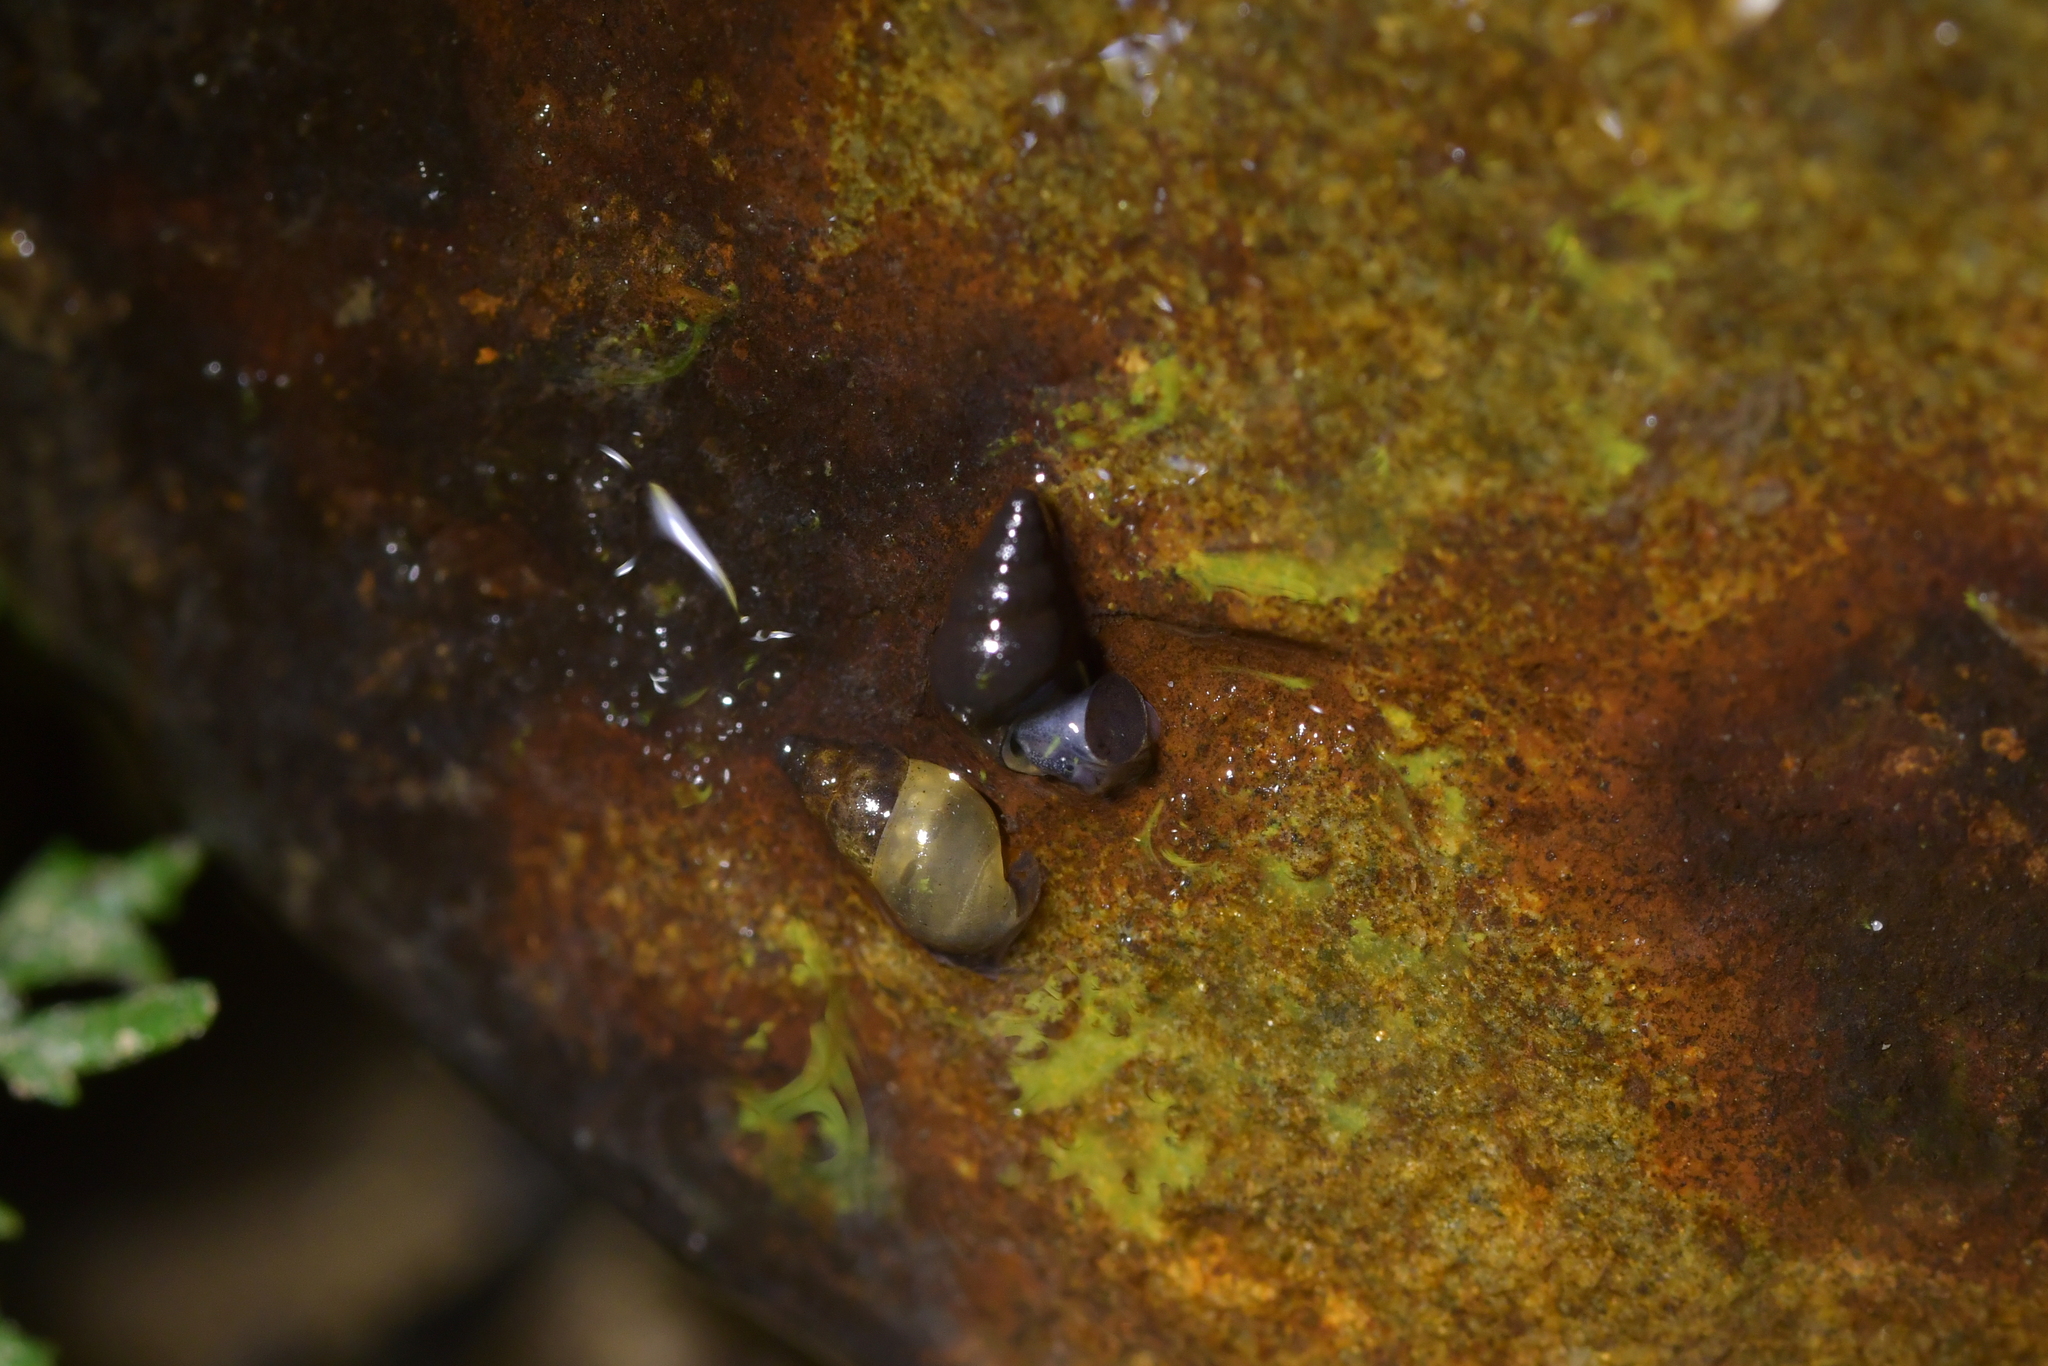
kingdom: Animalia
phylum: Mollusca
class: Gastropoda
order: Littorinimorpha
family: Tateidae
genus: Potamopyrgus
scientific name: Potamopyrgus antipodarum
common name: Jenkins' spire snail
